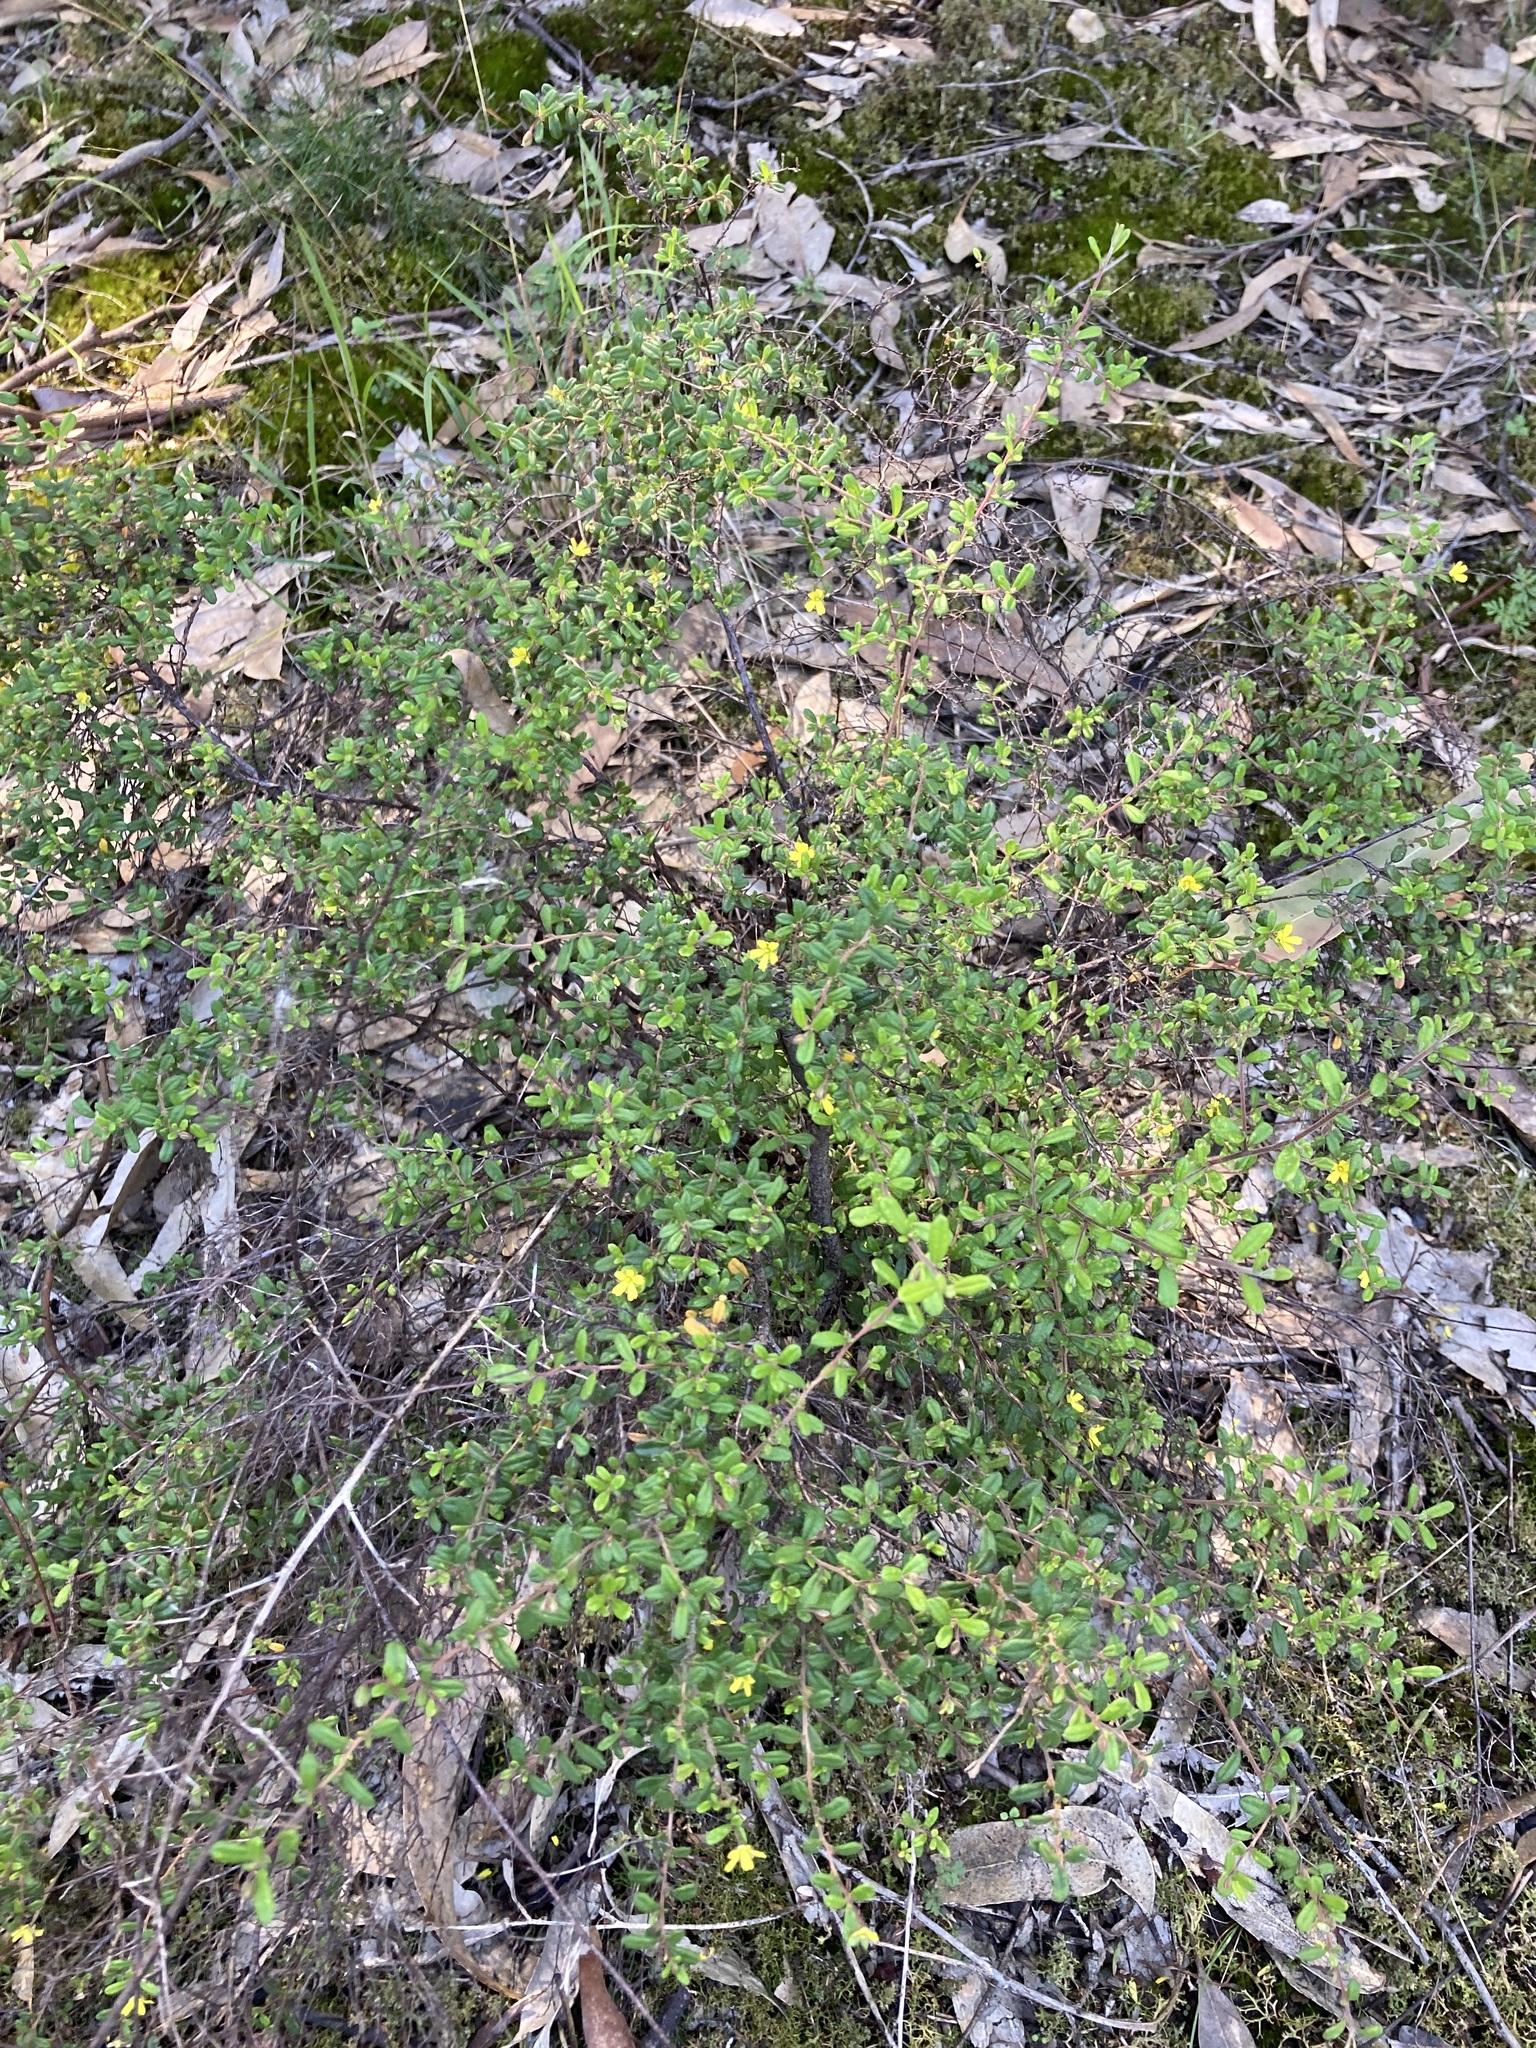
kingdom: Plantae
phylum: Tracheophyta
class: Magnoliopsida
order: Dilleniales
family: Dilleniaceae
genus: Hibbertia
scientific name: Hibbertia aspera
